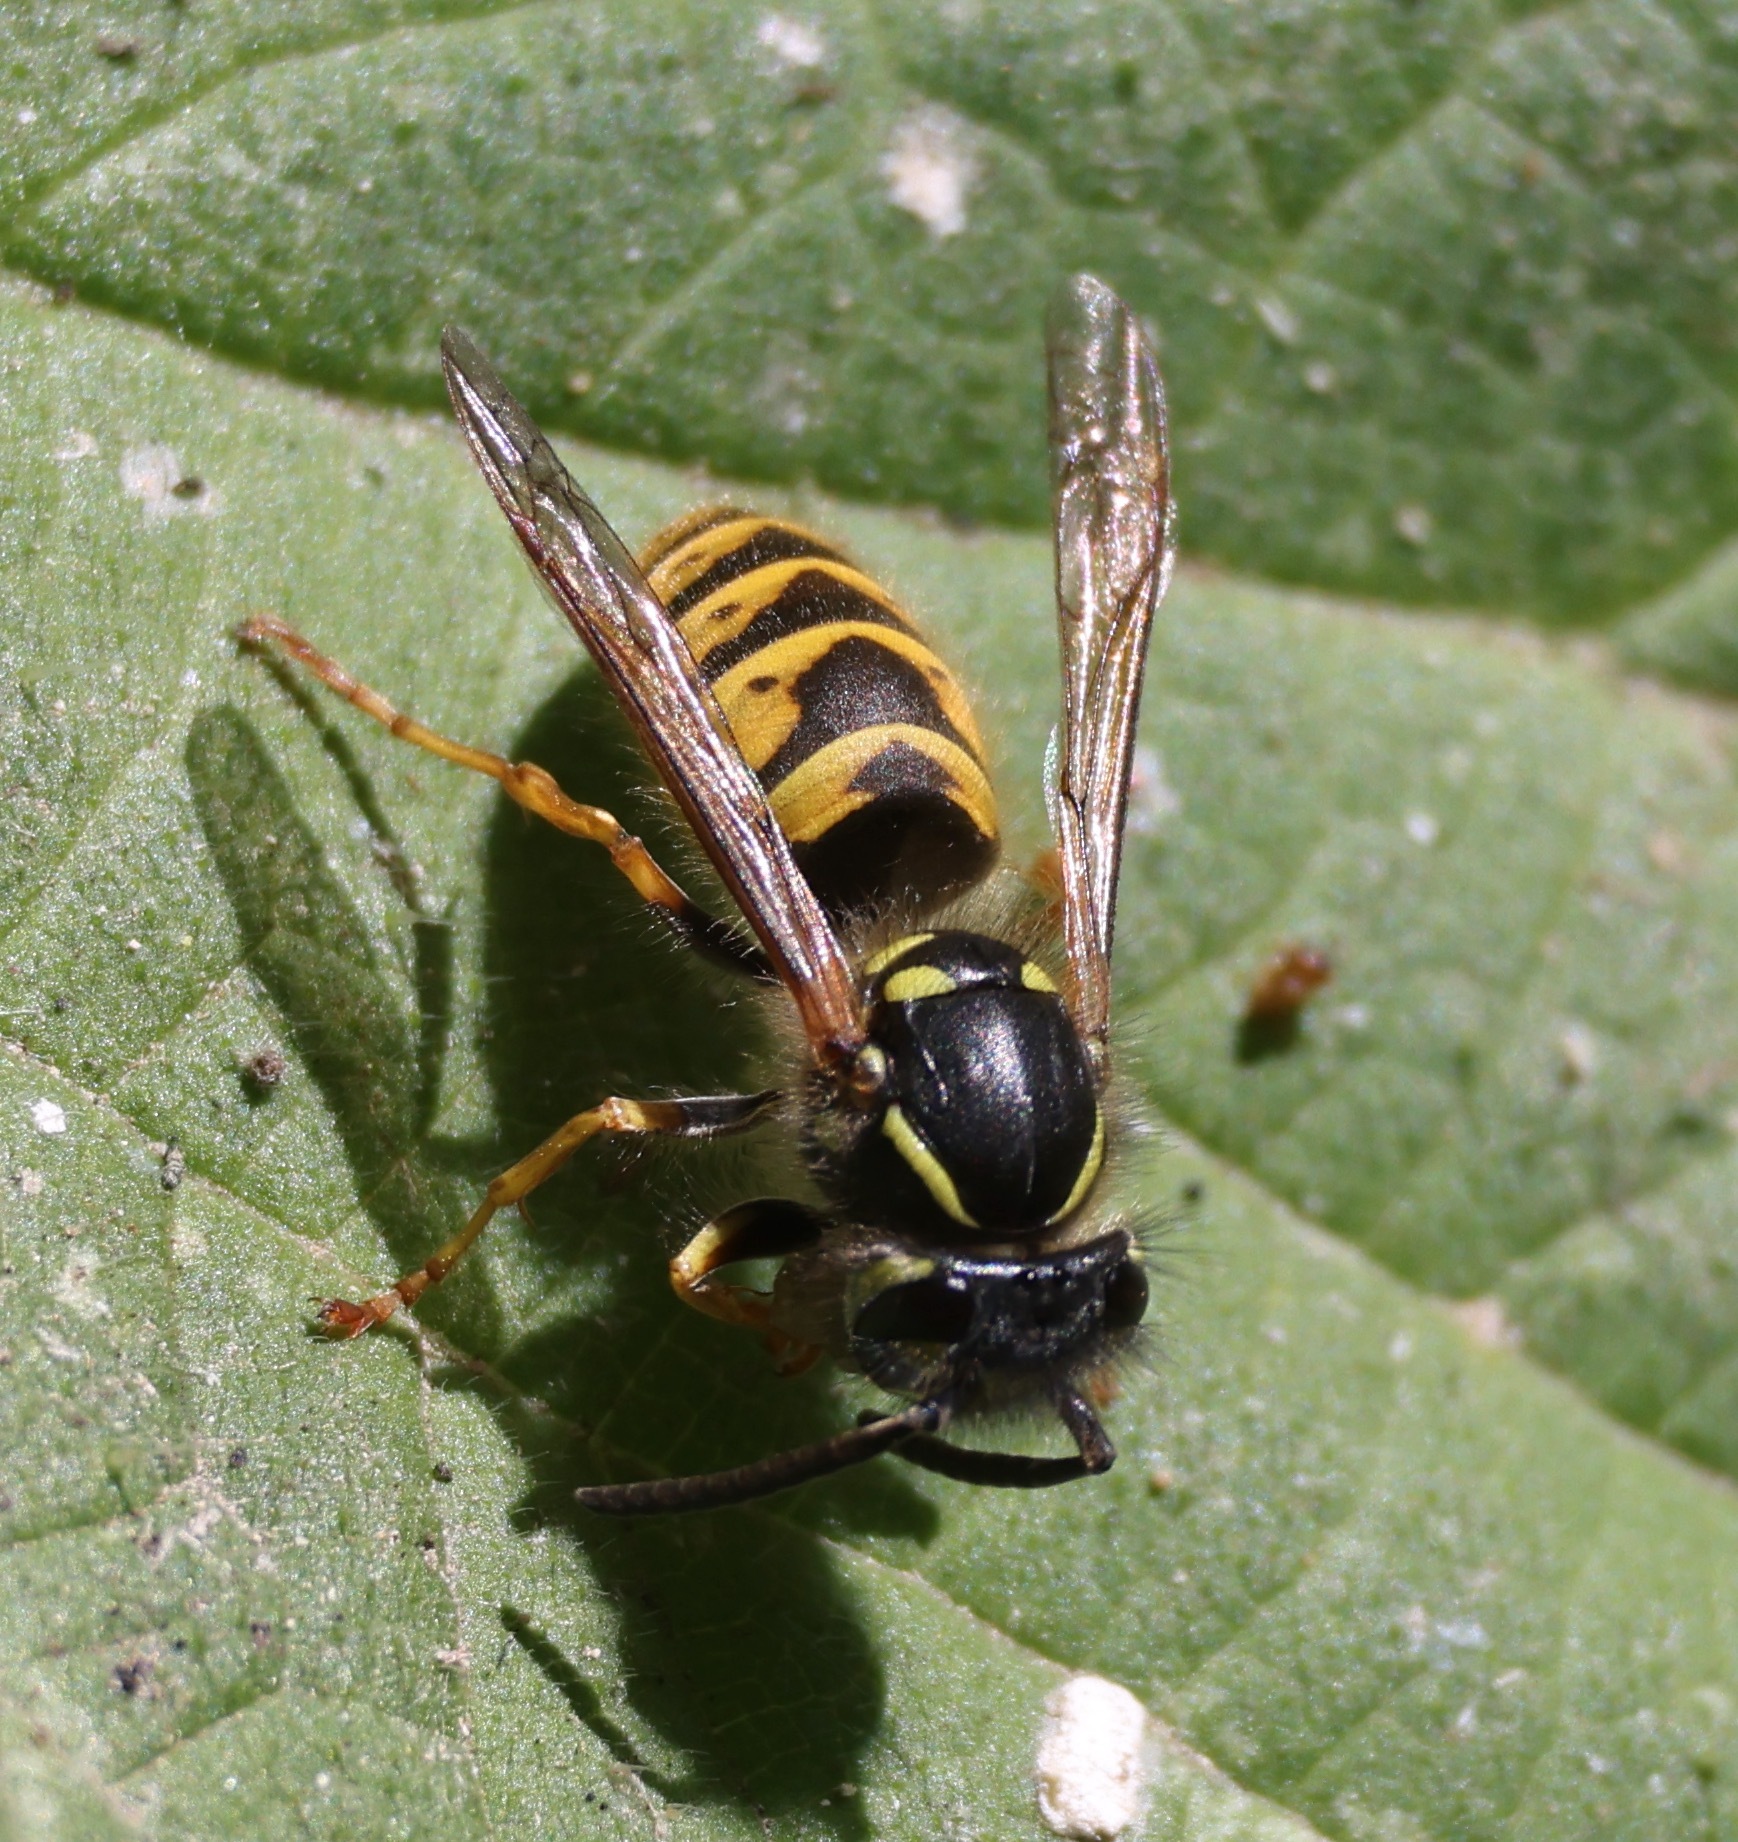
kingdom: Animalia
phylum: Arthropoda
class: Insecta
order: Hymenoptera
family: Vespidae
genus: Vespula
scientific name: Vespula vulgaris
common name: Common wasp
